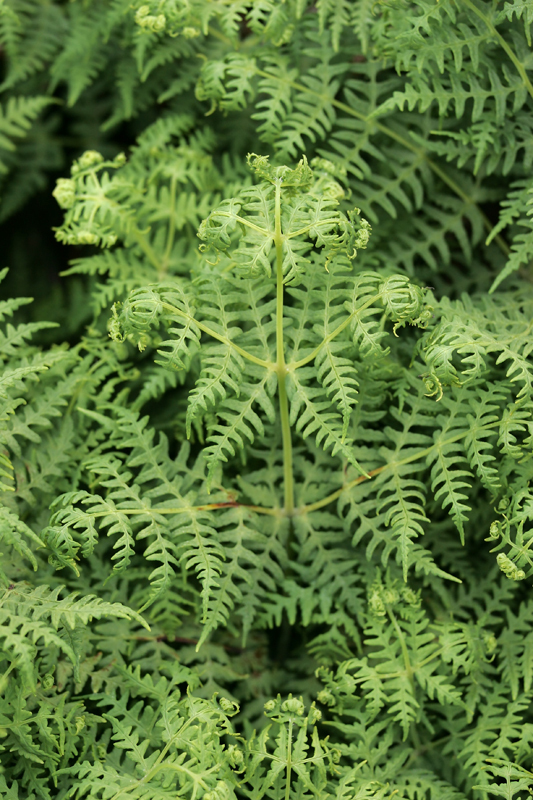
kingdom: Plantae
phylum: Tracheophyta
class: Polypodiopsida
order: Polypodiales
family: Dennstaedtiaceae
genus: Histiopteris
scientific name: Histiopteris incisa
